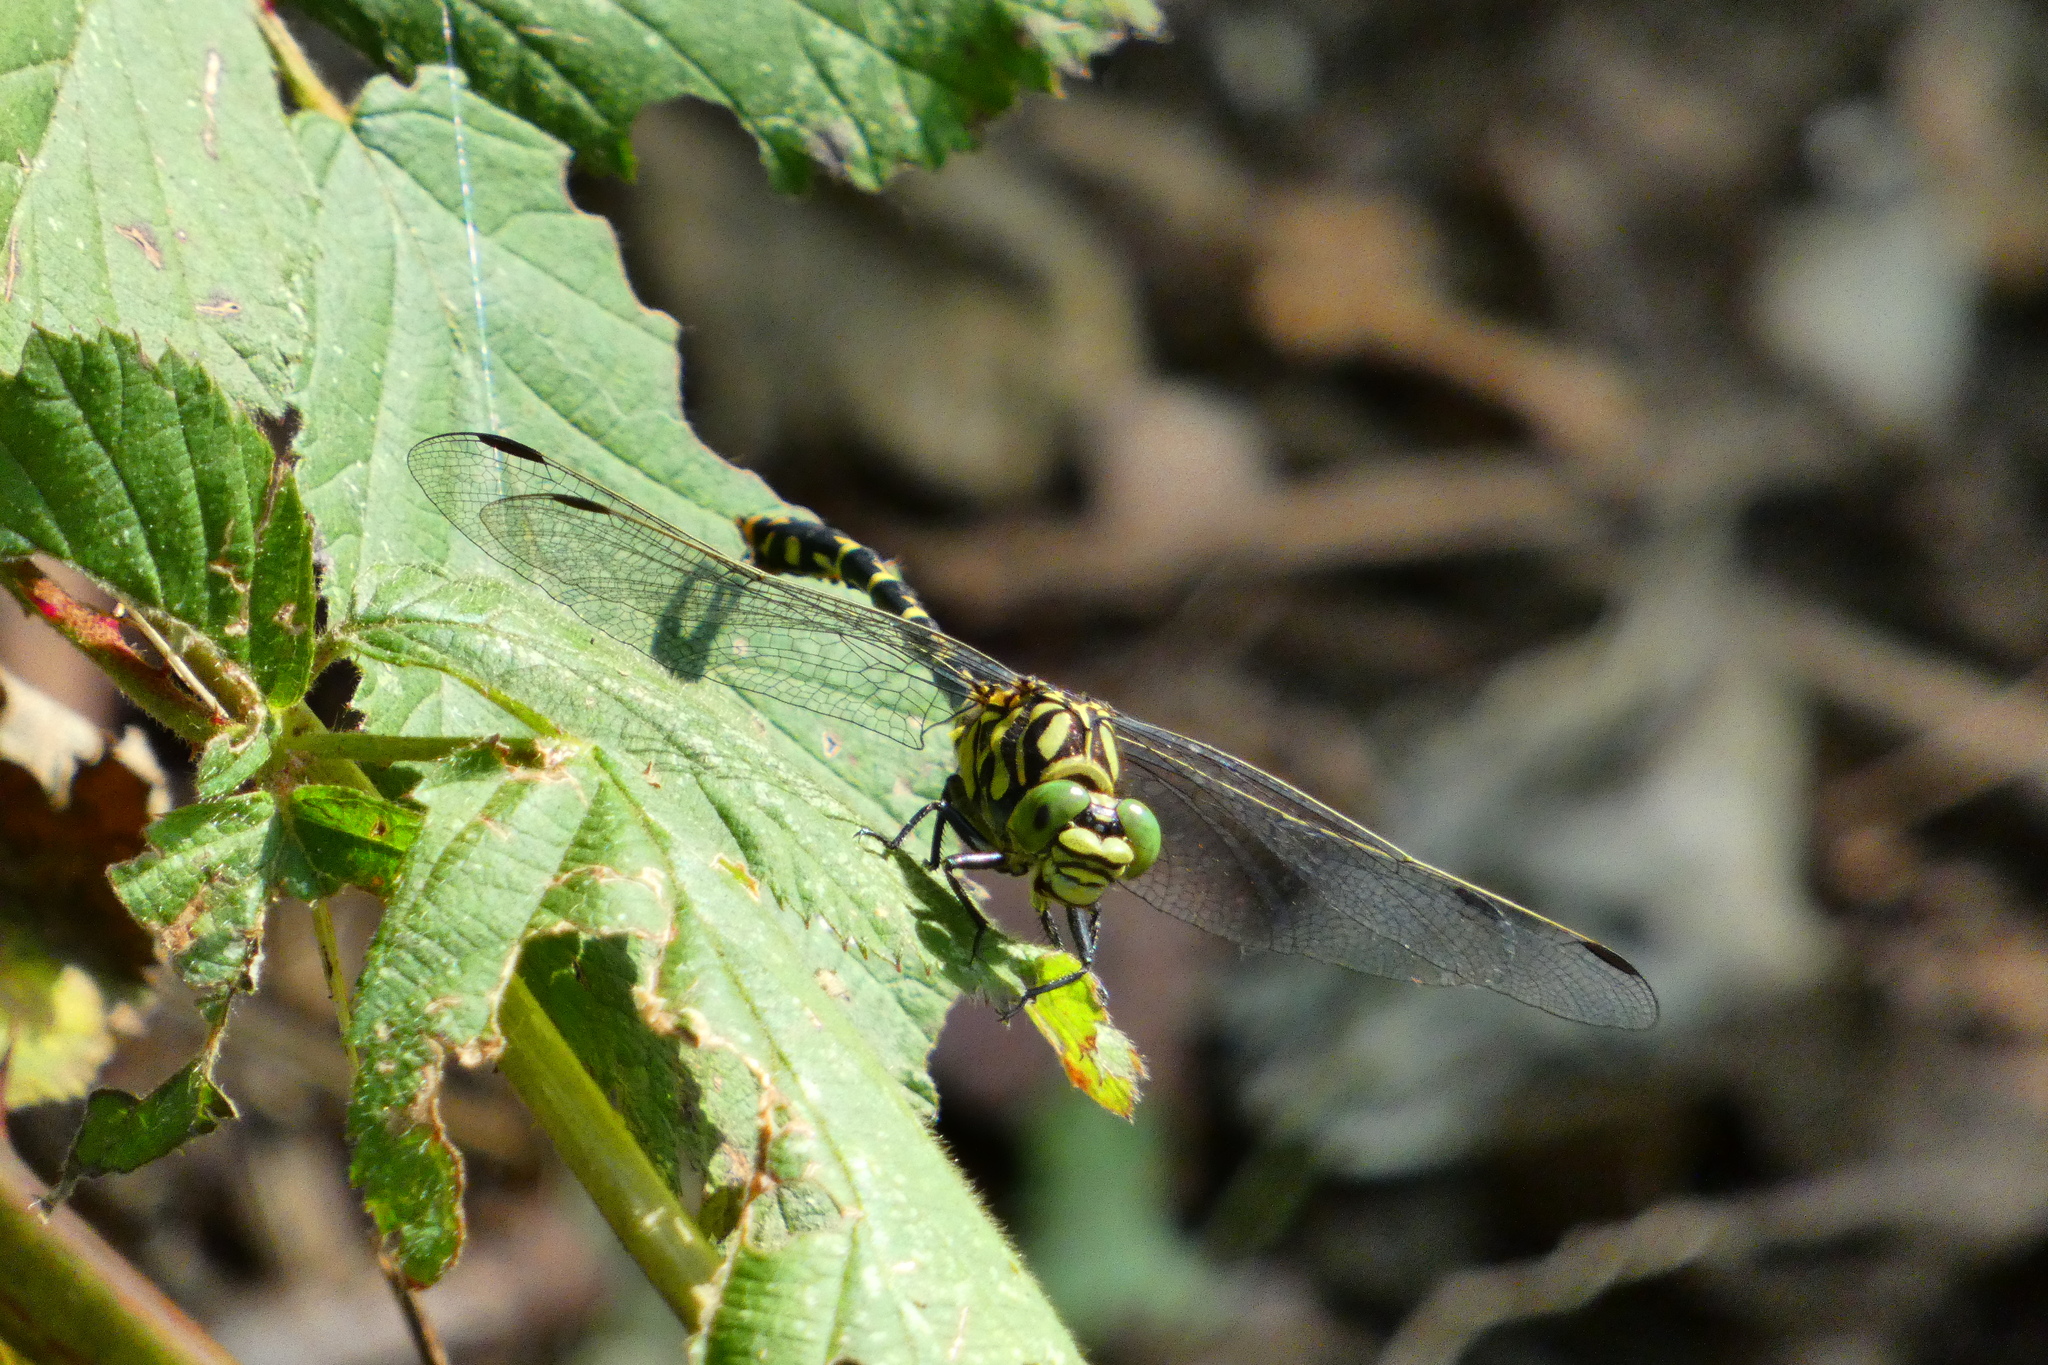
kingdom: Animalia
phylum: Arthropoda
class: Insecta
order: Odonata
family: Gomphidae
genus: Onychogomphus
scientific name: Onychogomphus forcipatus
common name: Small pincertail
